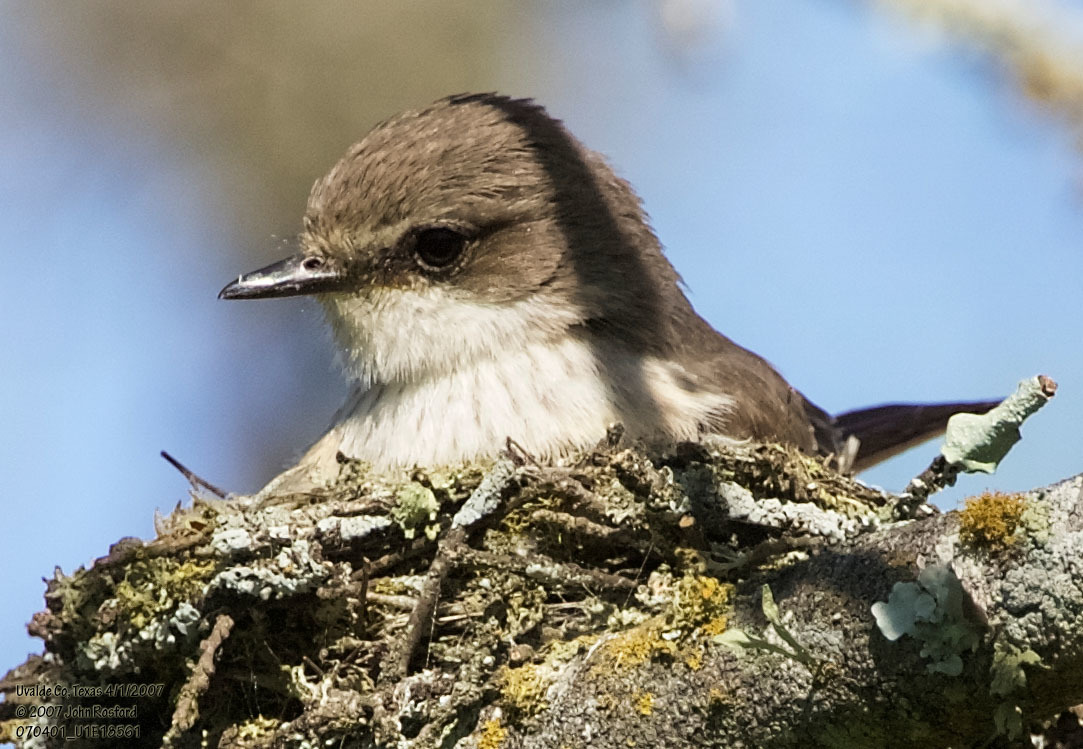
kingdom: Animalia
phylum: Chordata
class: Aves
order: Passeriformes
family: Tyrannidae
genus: Pyrocephalus
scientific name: Pyrocephalus rubinus
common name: Vermilion flycatcher
